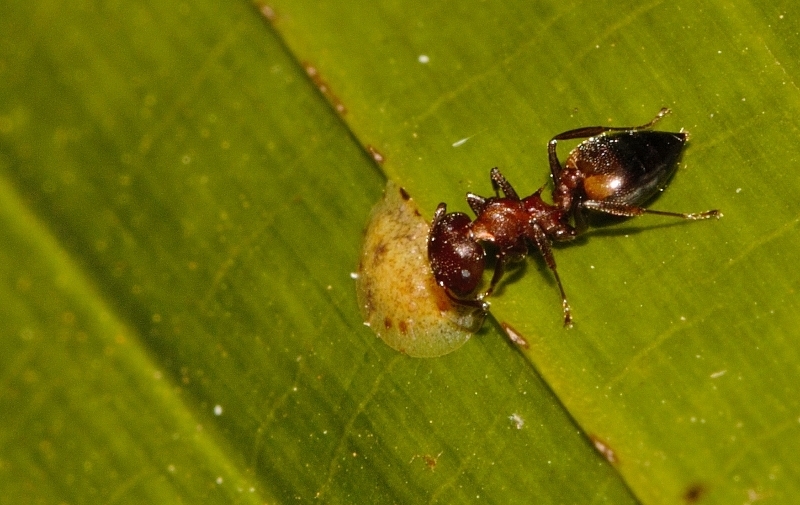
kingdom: Animalia
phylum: Arthropoda
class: Insecta
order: Hymenoptera
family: Formicidae
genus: Crematogaster
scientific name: Crematogaster castanea
